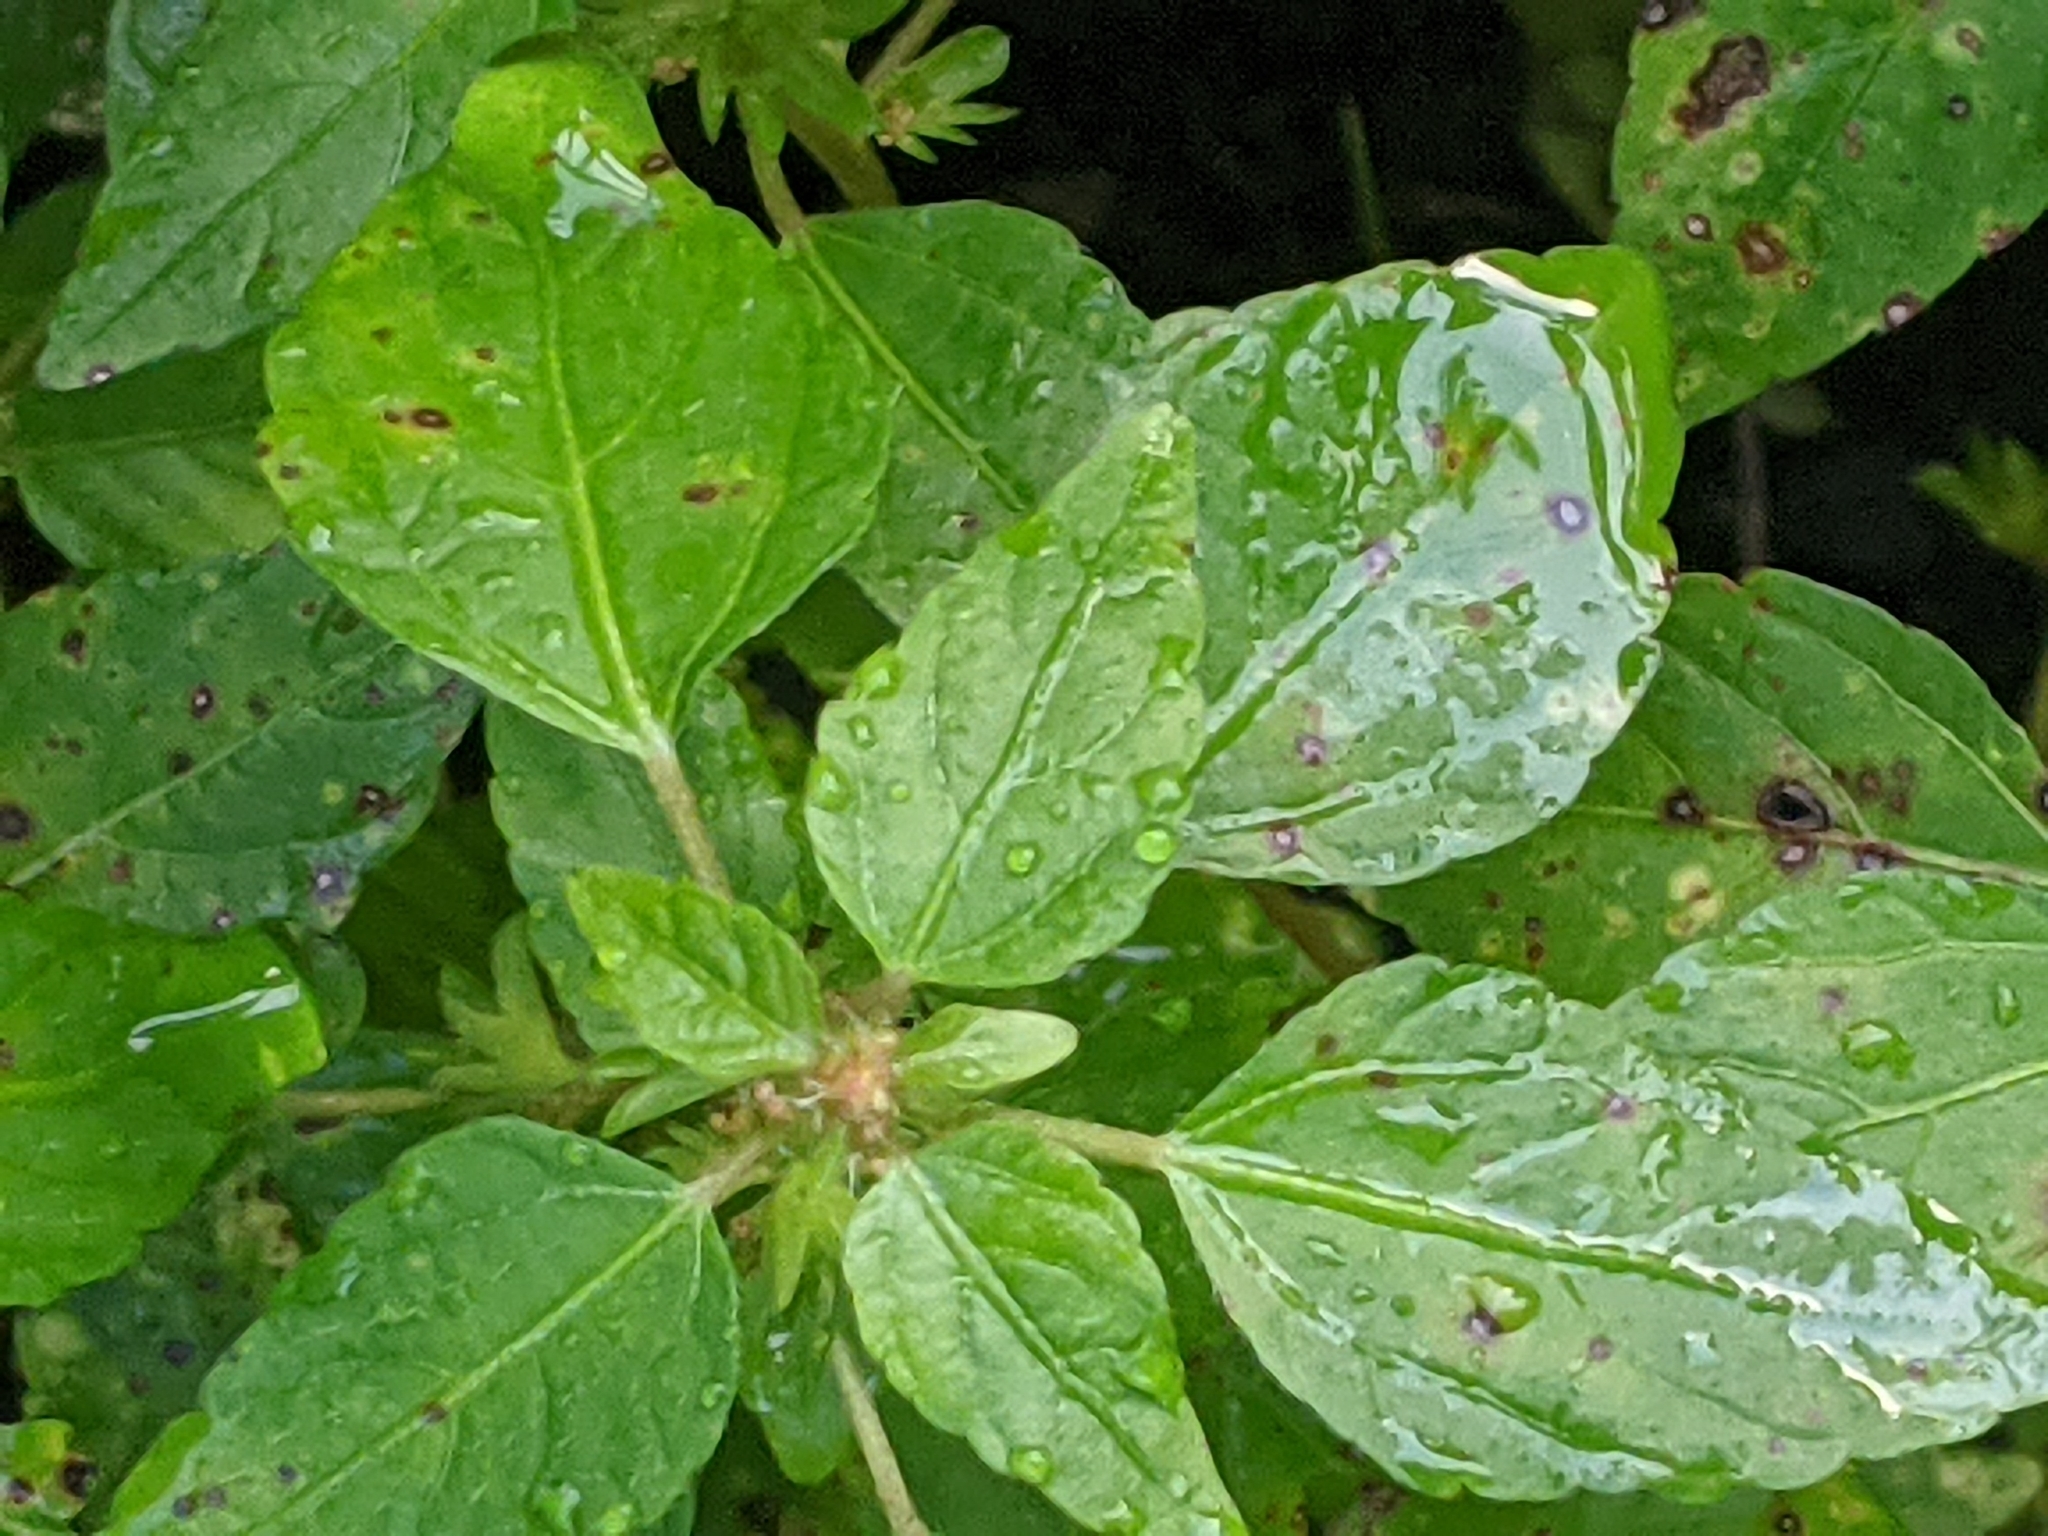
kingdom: Plantae
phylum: Tracheophyta
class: Magnoliopsida
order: Malpighiales
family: Euphorbiaceae
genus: Acalypha
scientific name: Acalypha rhomboidea
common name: Rhombic copperleaf
